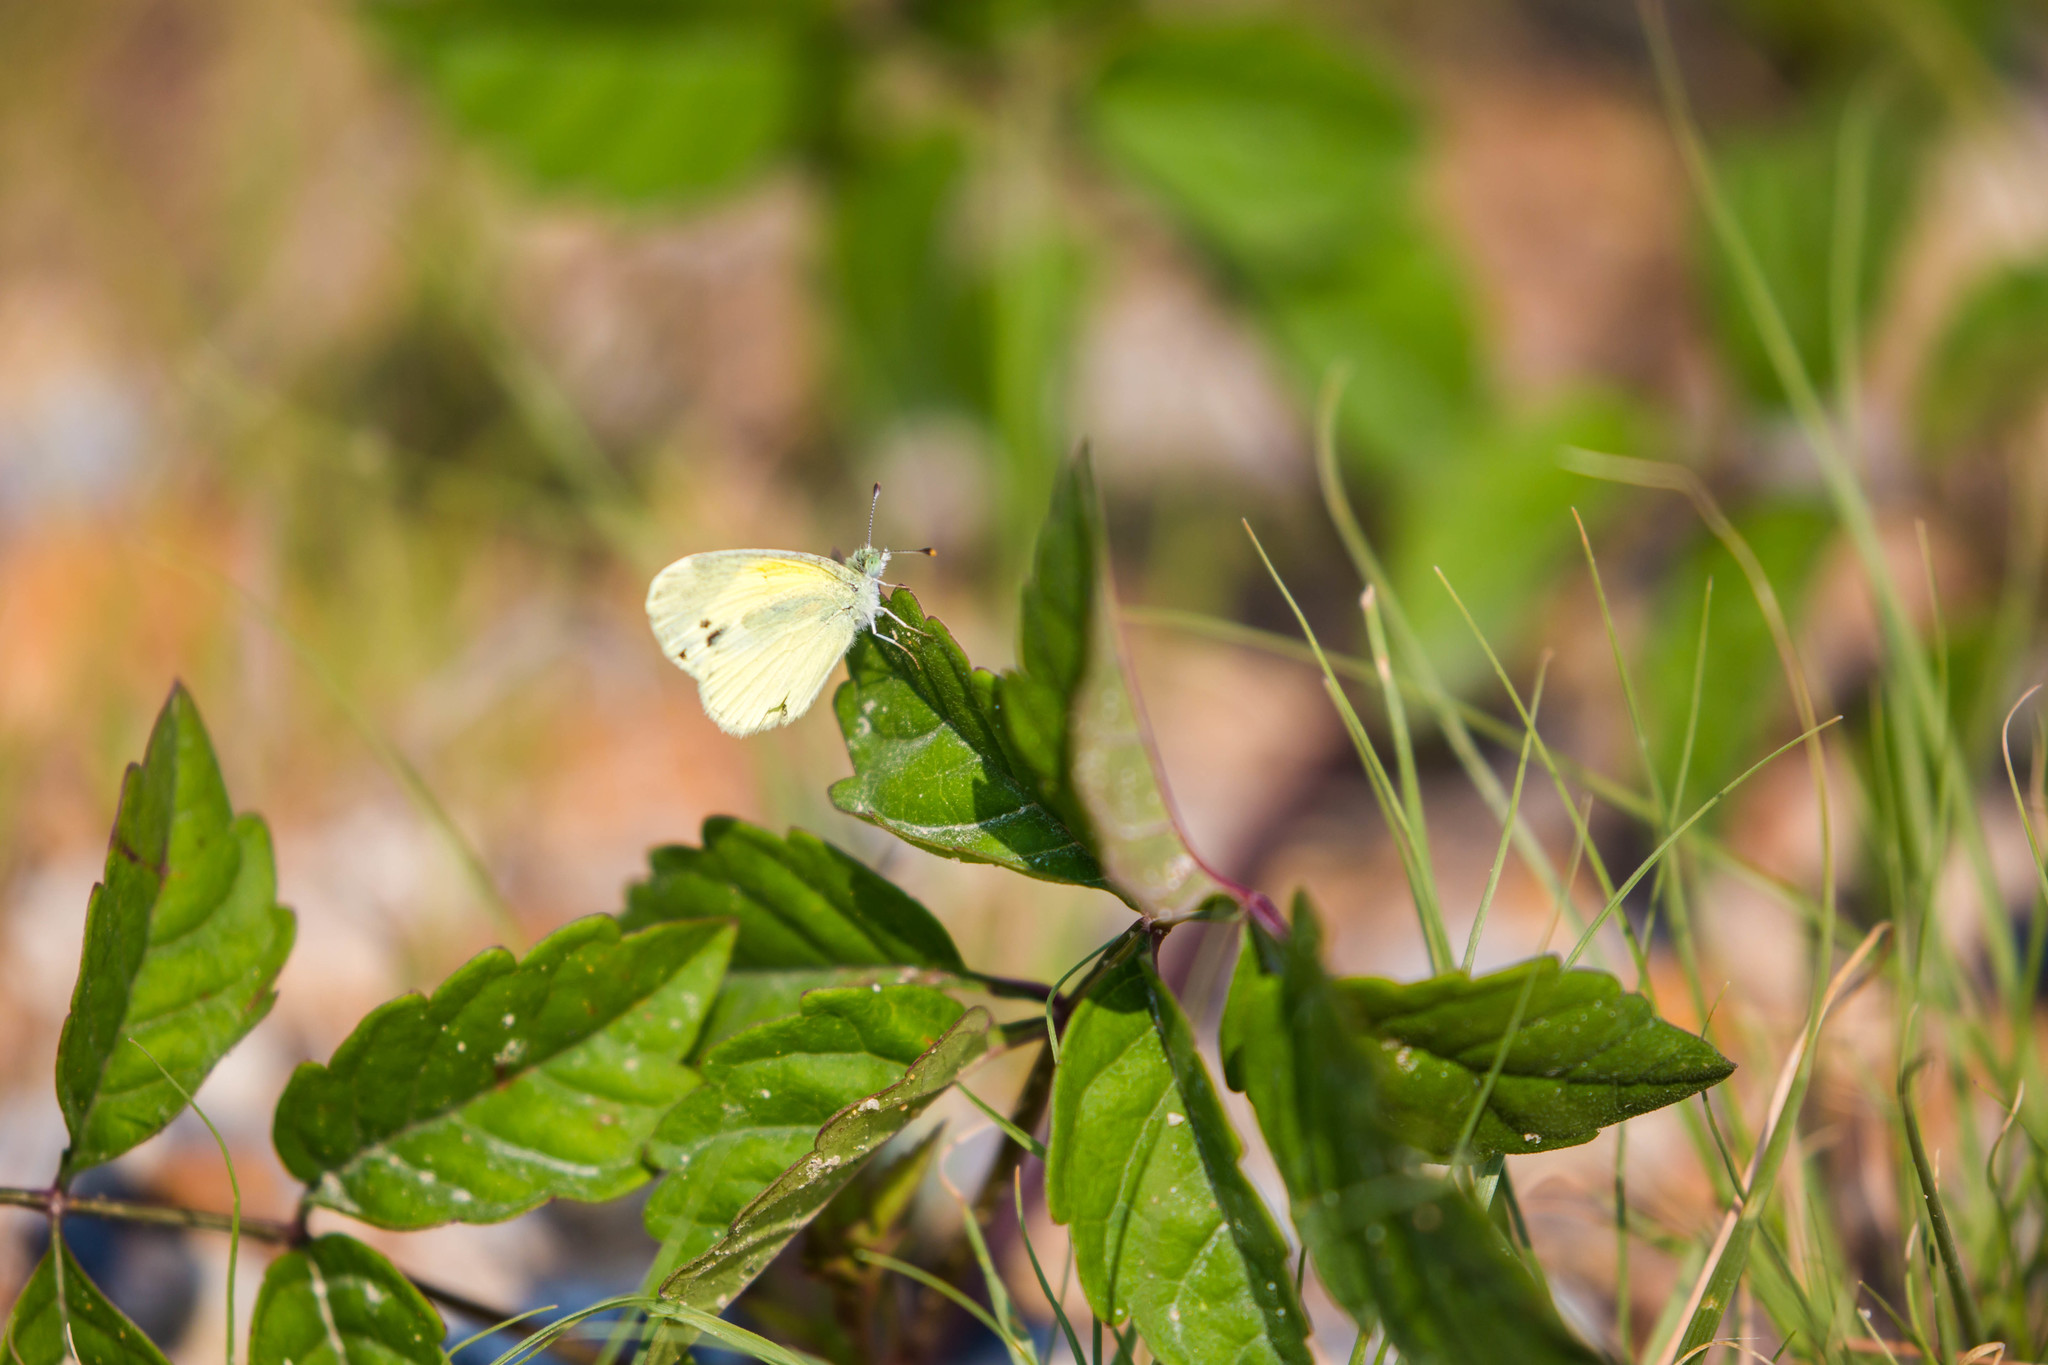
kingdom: Animalia
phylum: Arthropoda
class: Insecta
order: Lepidoptera
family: Pieridae
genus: Nathalis
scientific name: Nathalis iole
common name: Dainty sulphur
